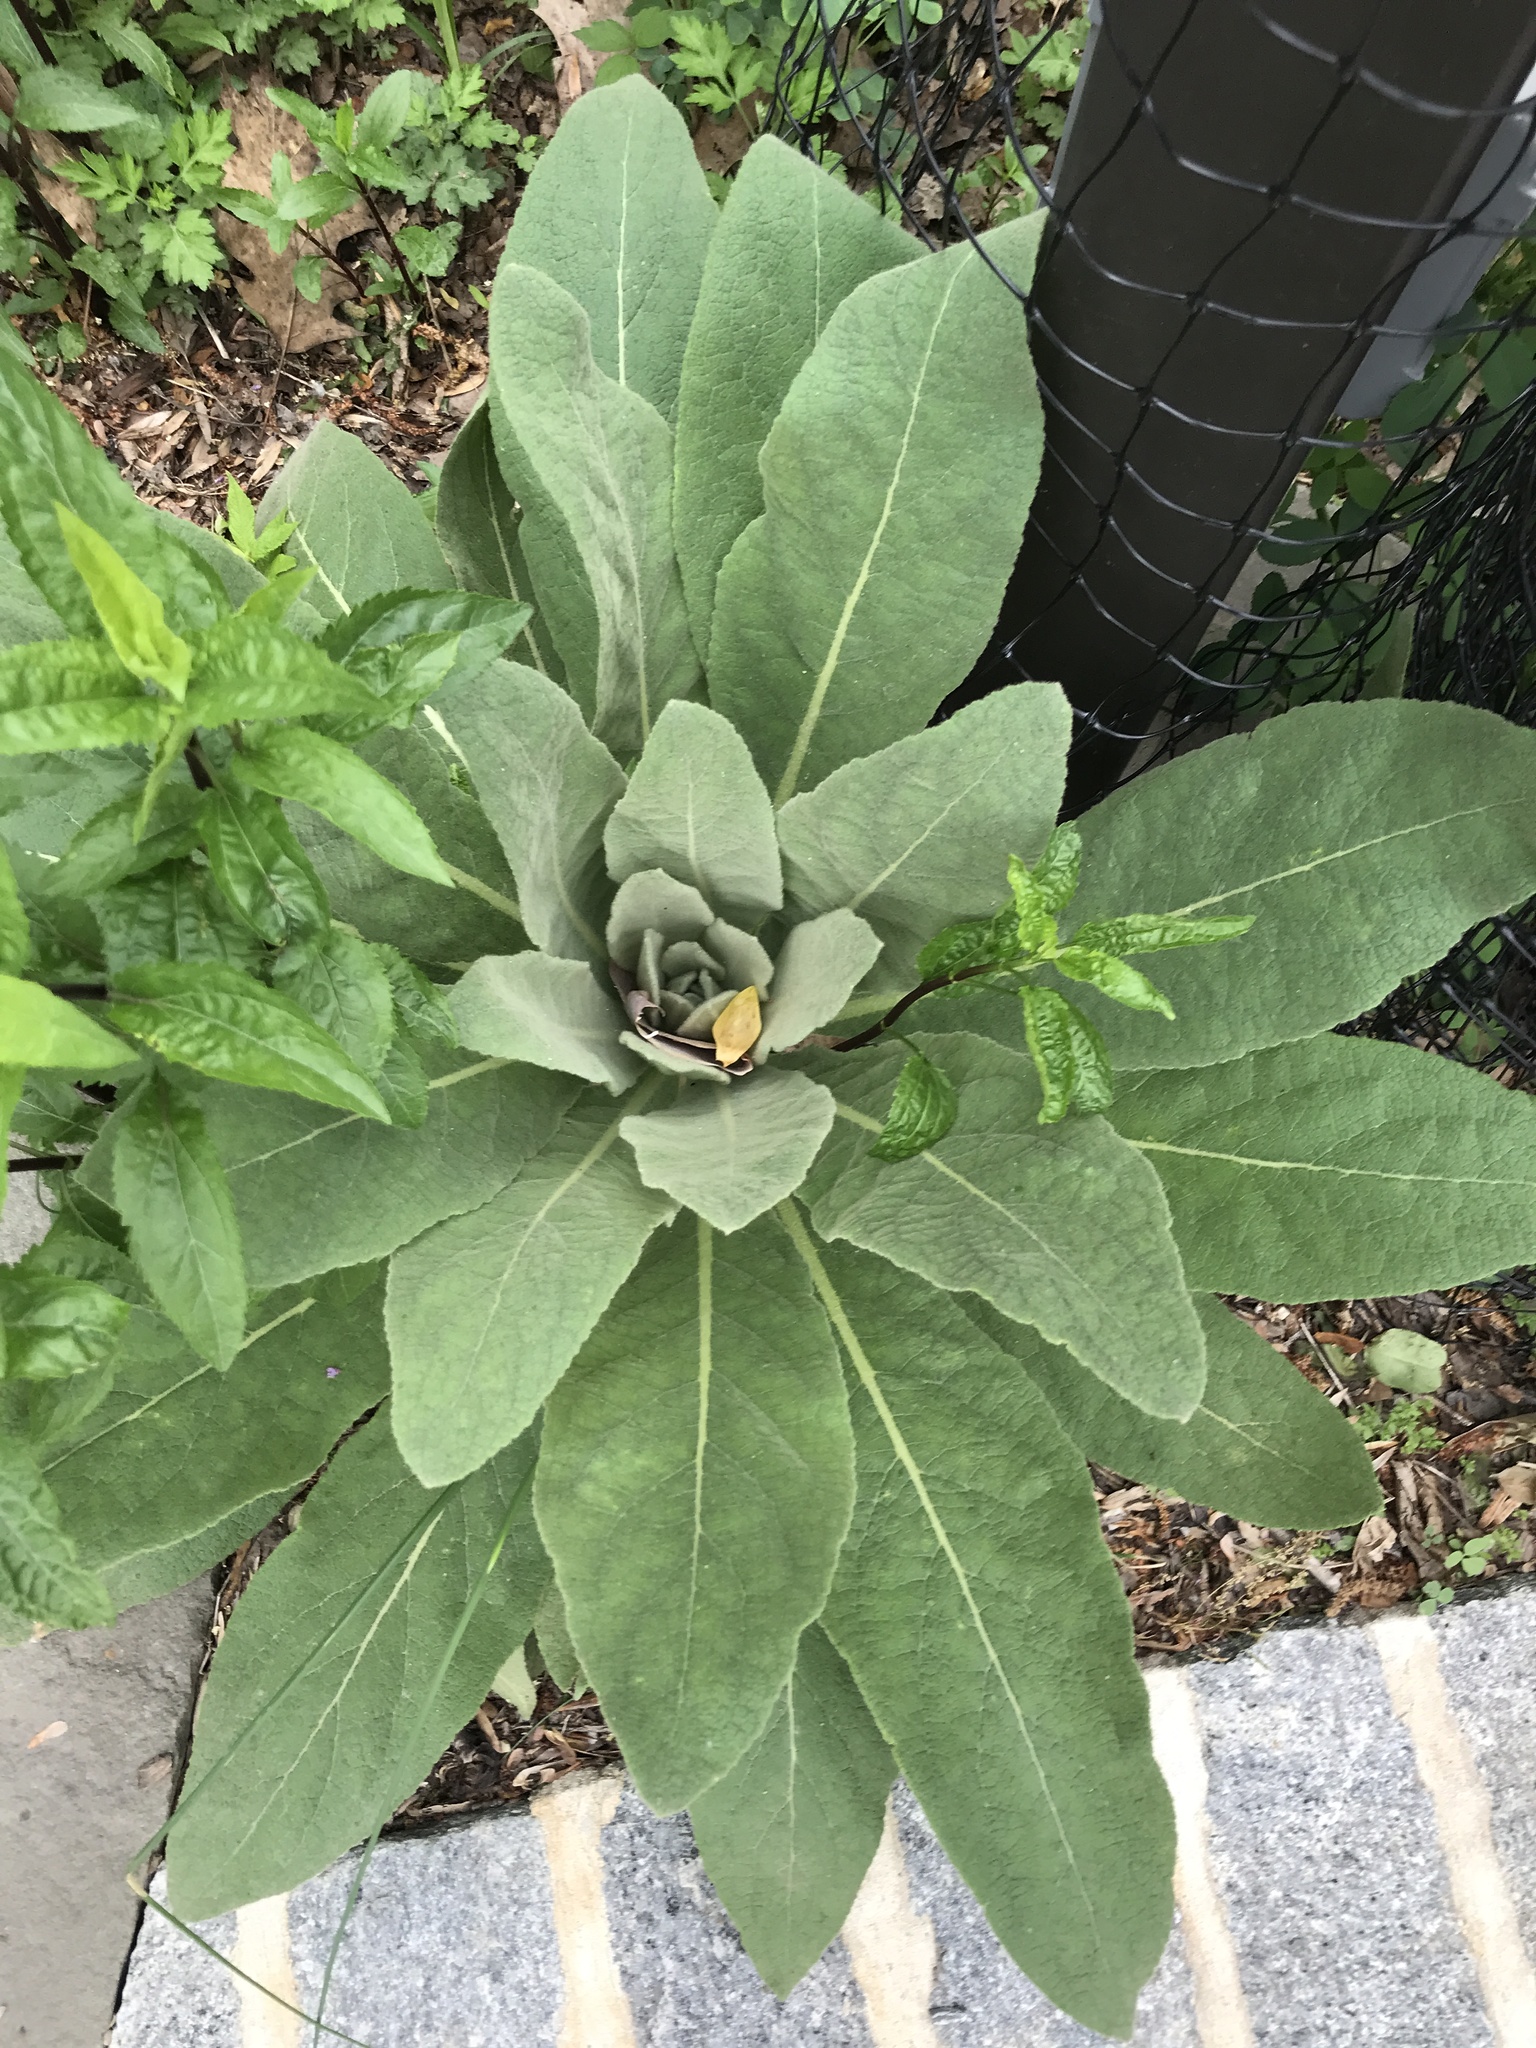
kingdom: Plantae
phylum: Tracheophyta
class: Magnoliopsida
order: Lamiales
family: Scrophulariaceae
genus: Verbascum
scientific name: Verbascum thapsus
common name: Common mullein
